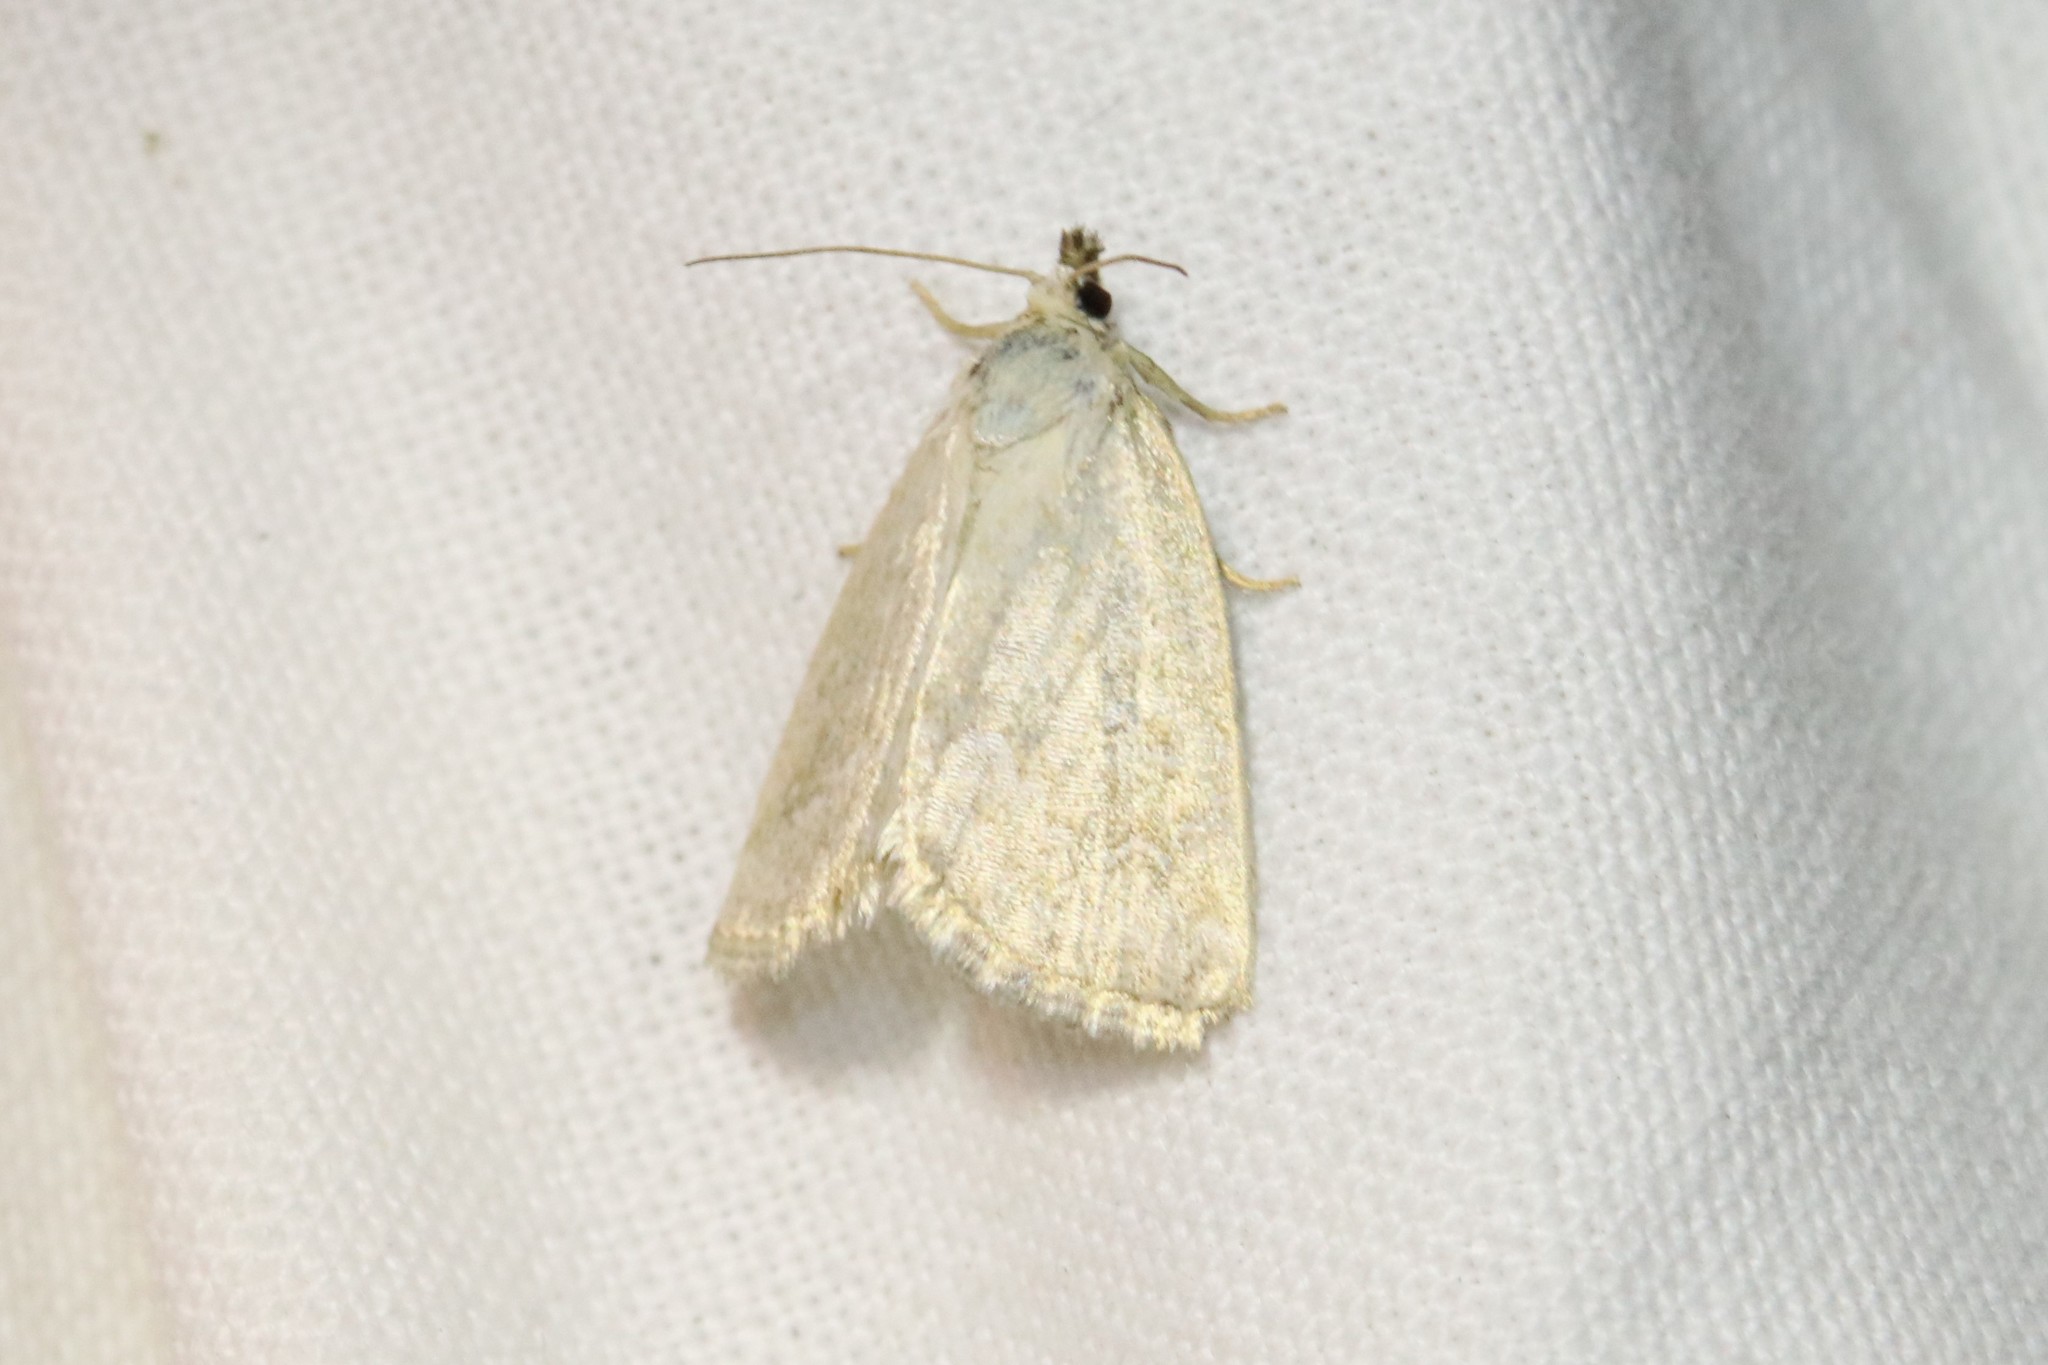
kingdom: Animalia
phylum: Arthropoda
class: Insecta
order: Lepidoptera
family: Noctuidae
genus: Protodeltote
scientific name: Protodeltote albidula
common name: Pale glyph
